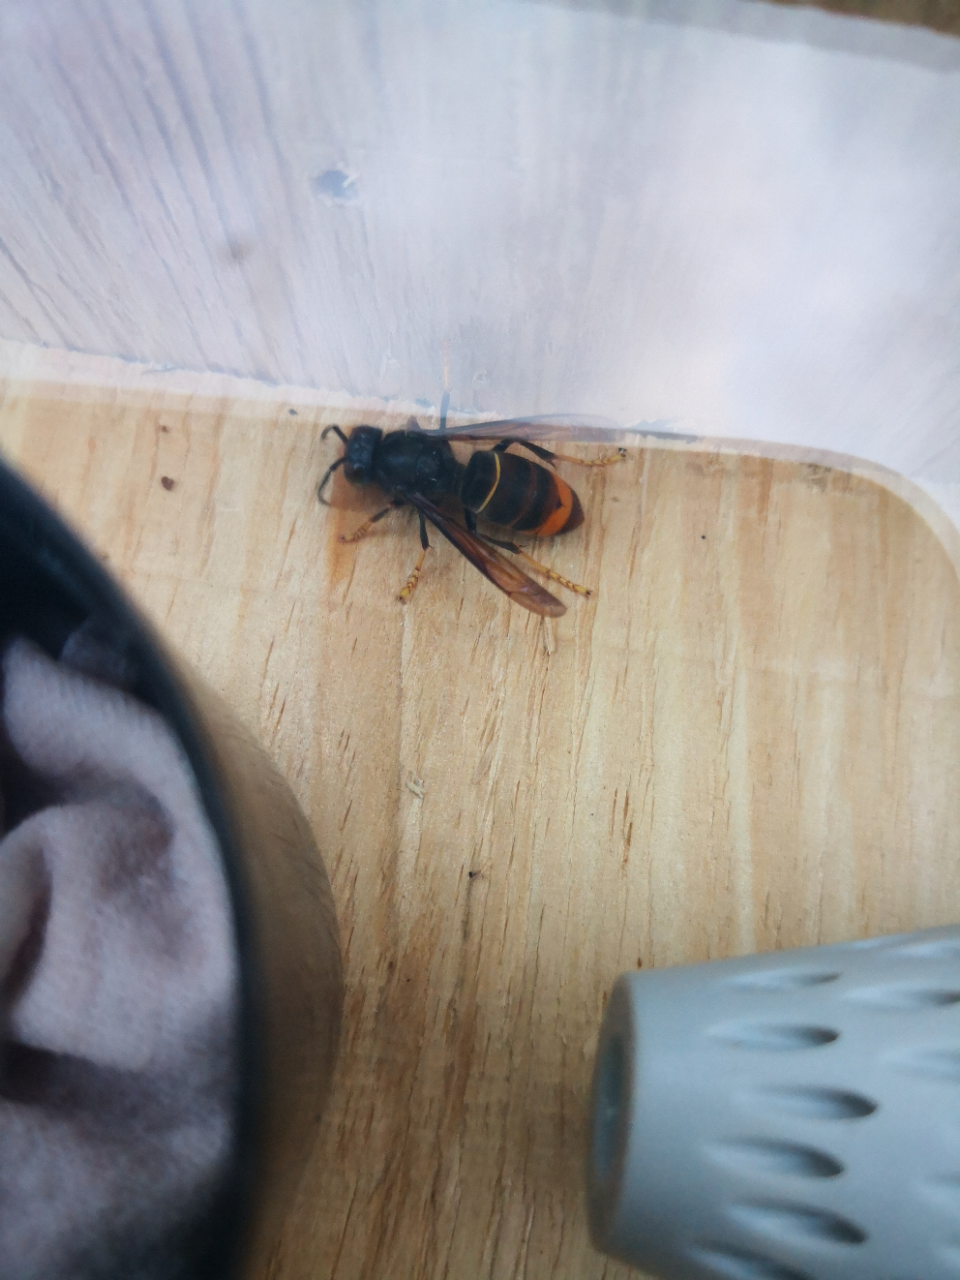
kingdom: Animalia
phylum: Arthropoda
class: Insecta
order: Hymenoptera
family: Vespidae
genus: Vespa
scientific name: Vespa velutina
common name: Asian hornet
